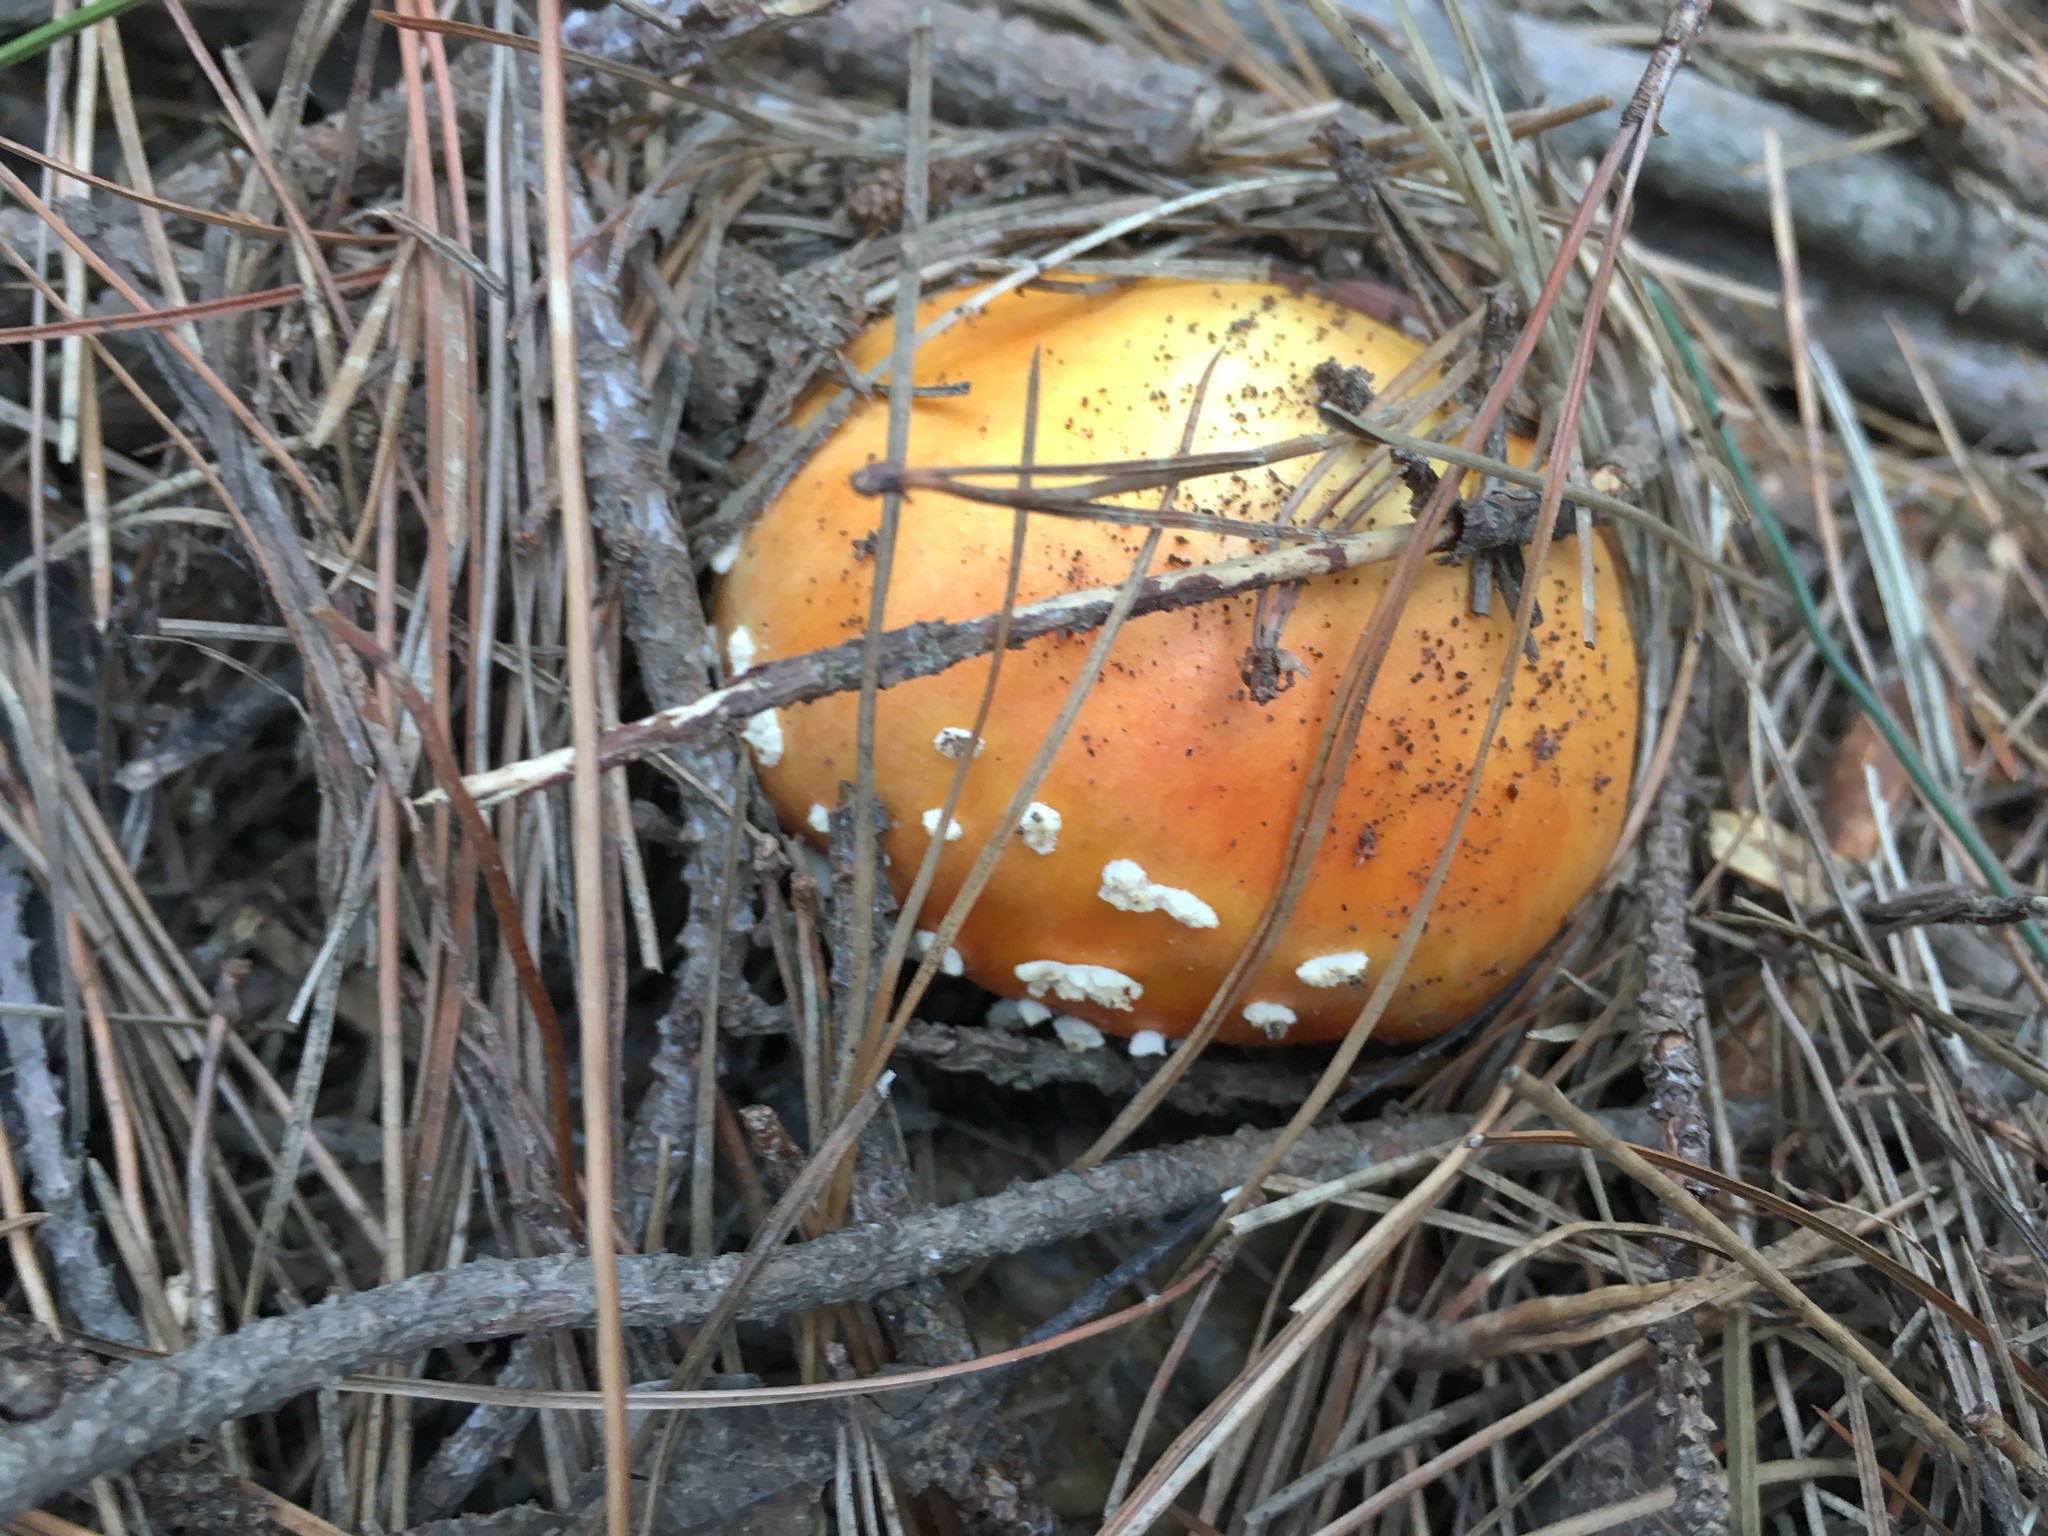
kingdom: Fungi
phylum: Basidiomycota
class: Agaricomycetes
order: Agaricales
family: Amanitaceae
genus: Amanita
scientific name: Amanita muscaria
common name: Fly agaric
